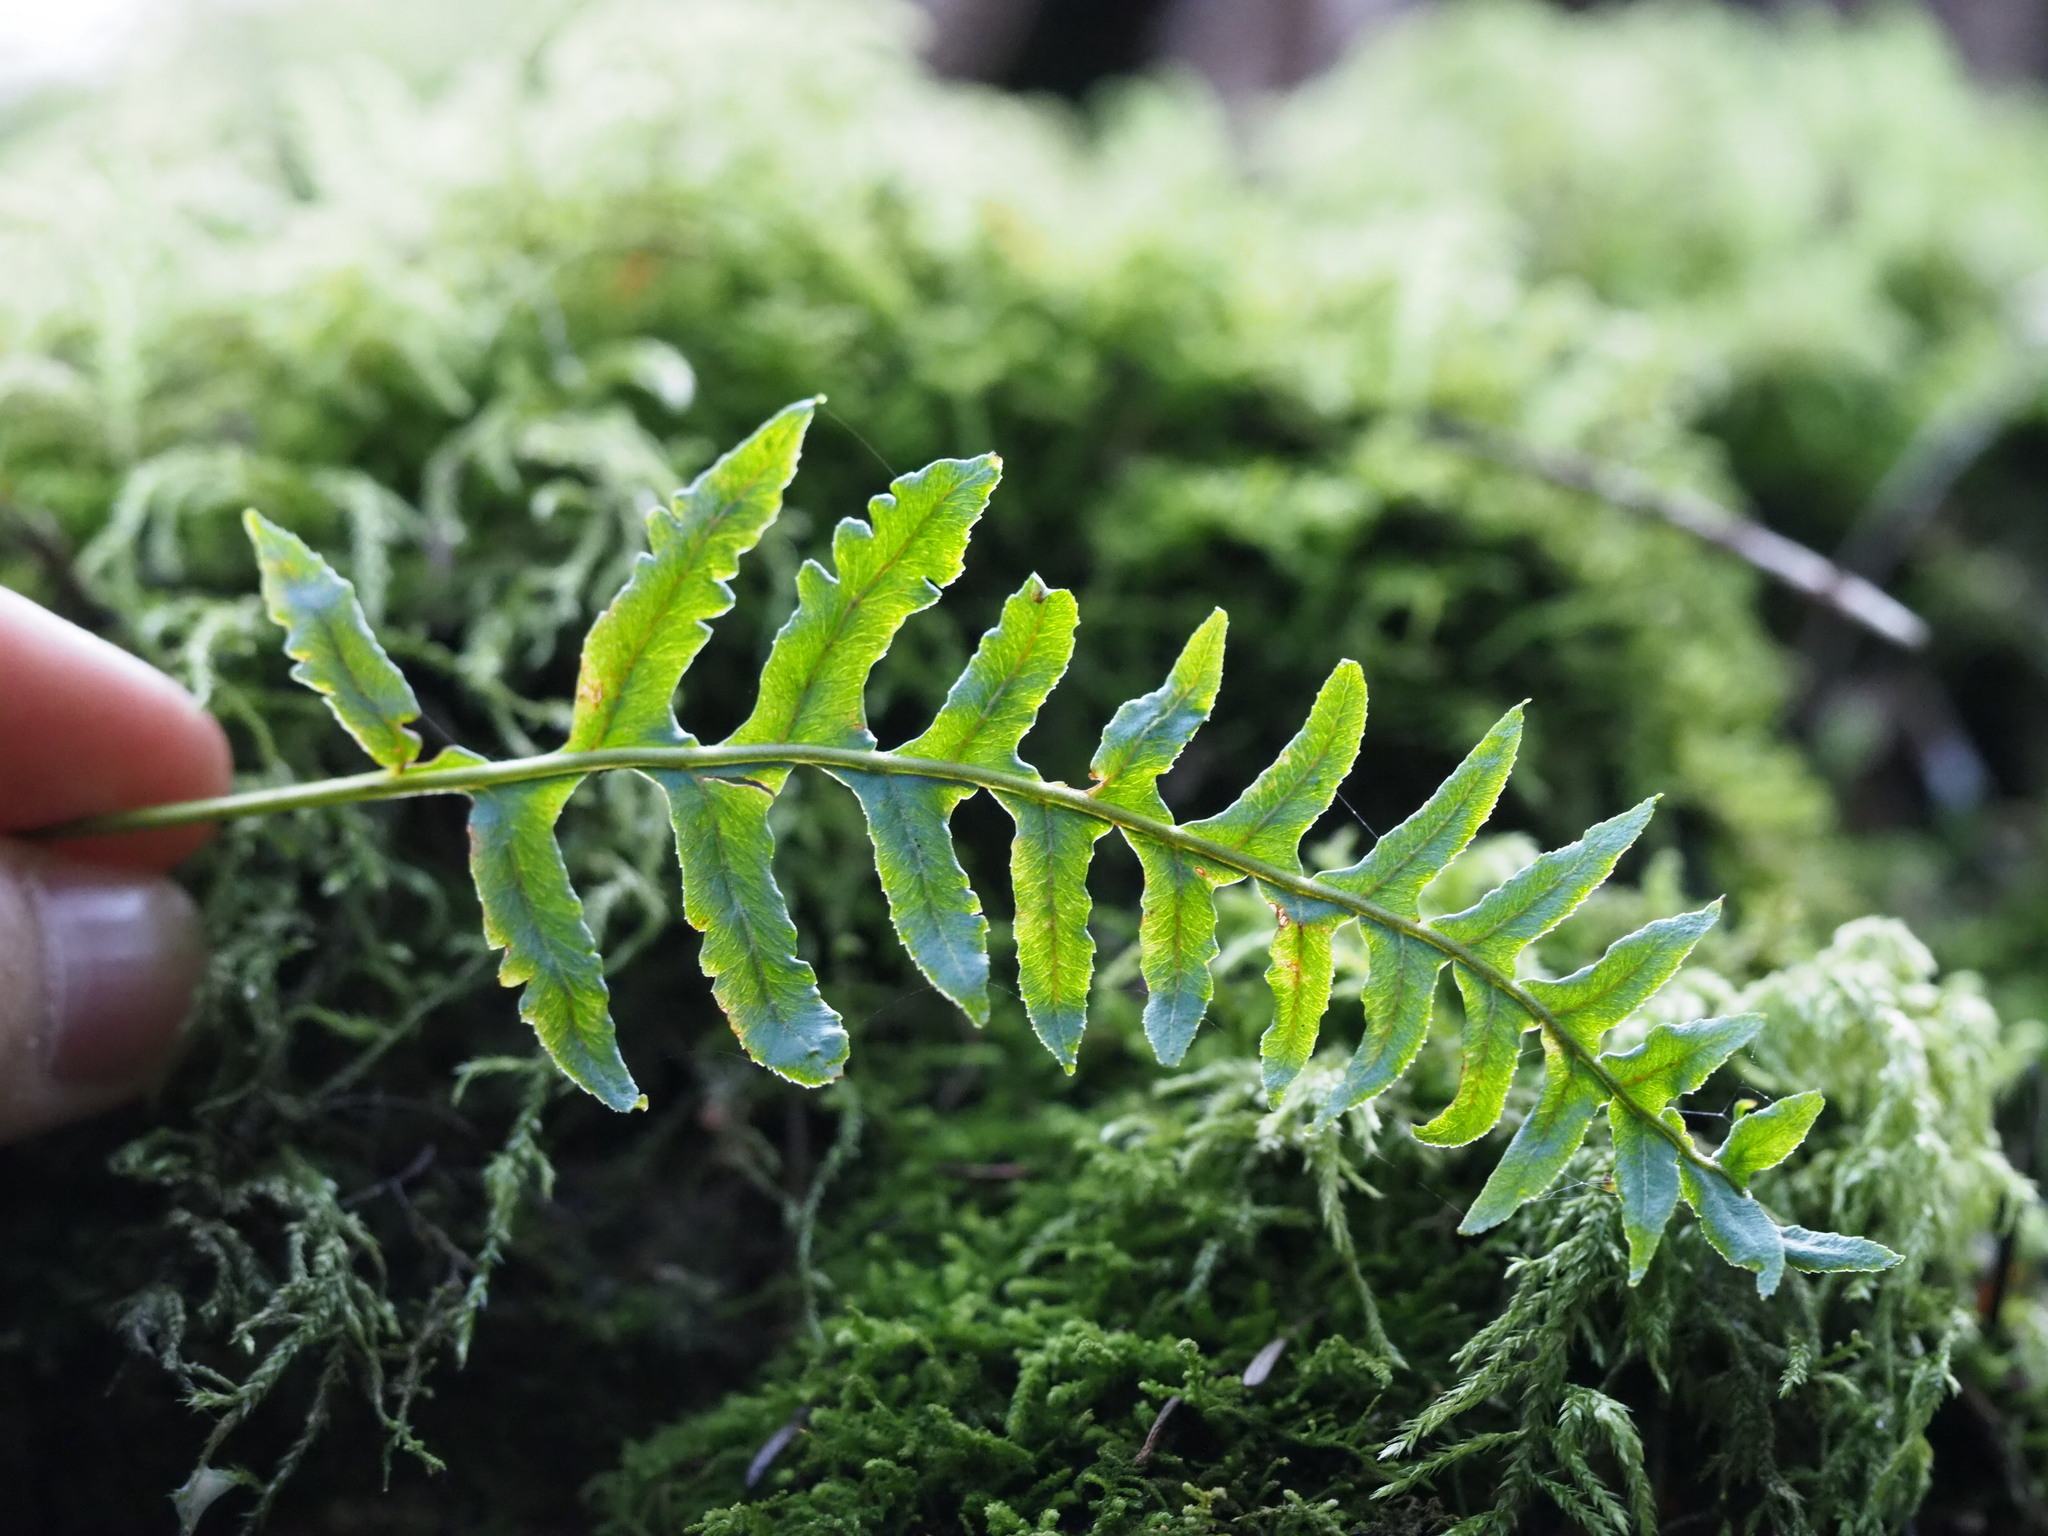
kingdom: Plantae
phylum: Tracheophyta
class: Polypodiopsida
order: Polypodiales
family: Polypodiaceae
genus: Polypodium
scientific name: Polypodium glycyrrhiza
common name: Licorice fern
